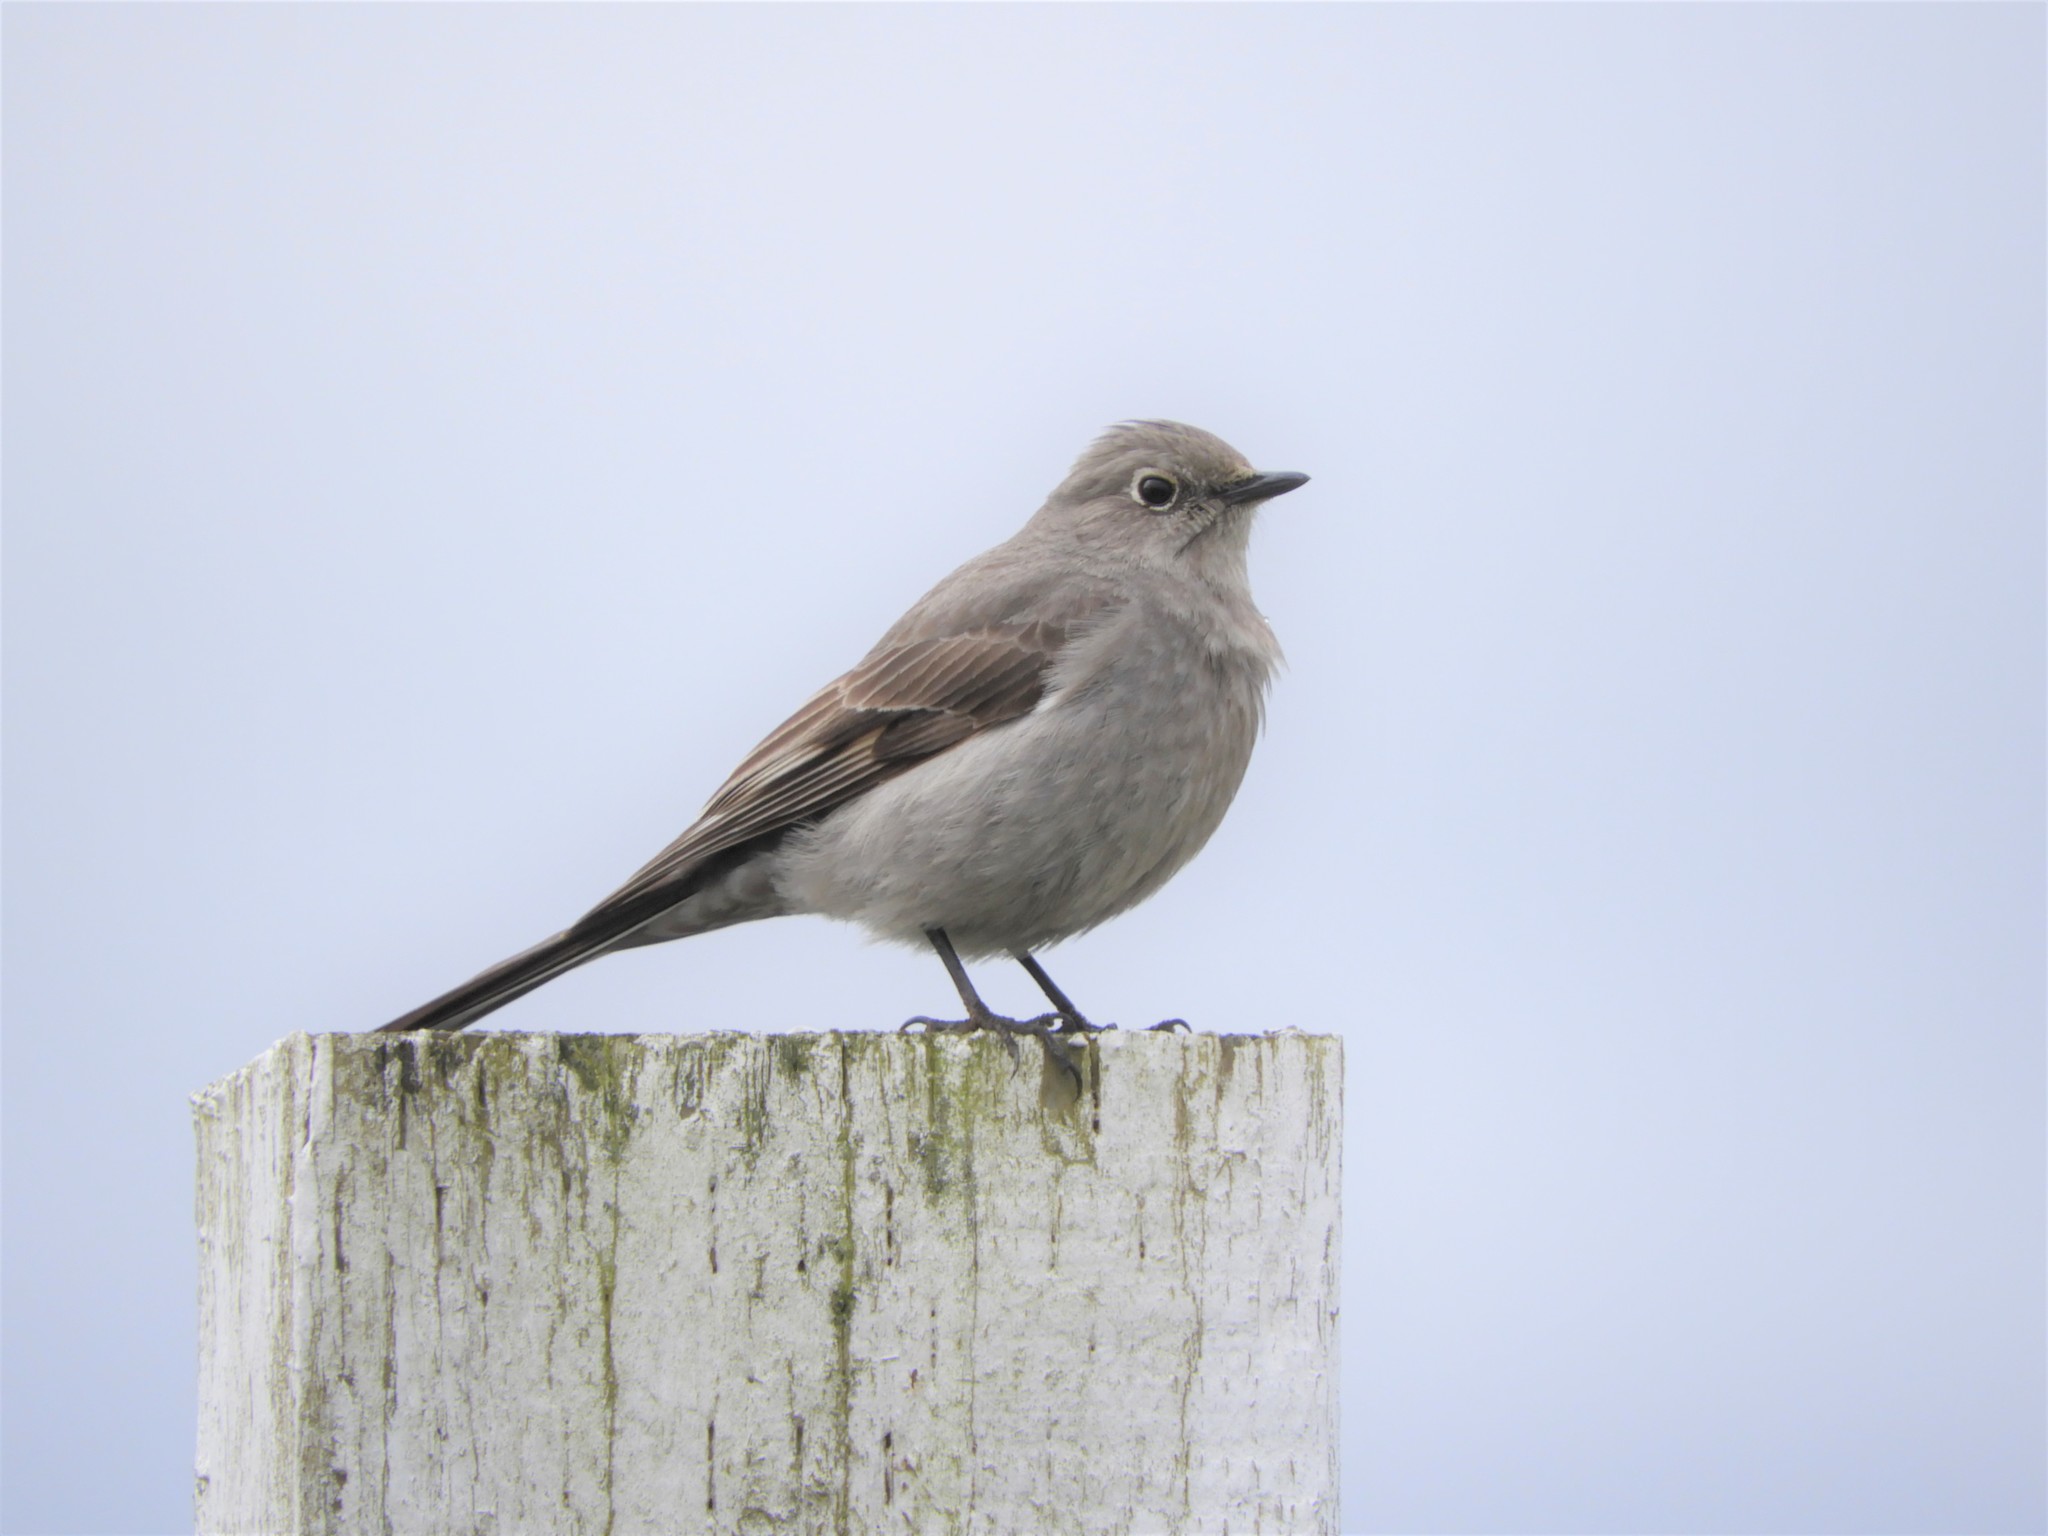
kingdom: Animalia
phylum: Chordata
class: Aves
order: Passeriformes
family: Turdidae
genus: Myadestes
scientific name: Myadestes townsendi
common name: Townsend's solitaire
